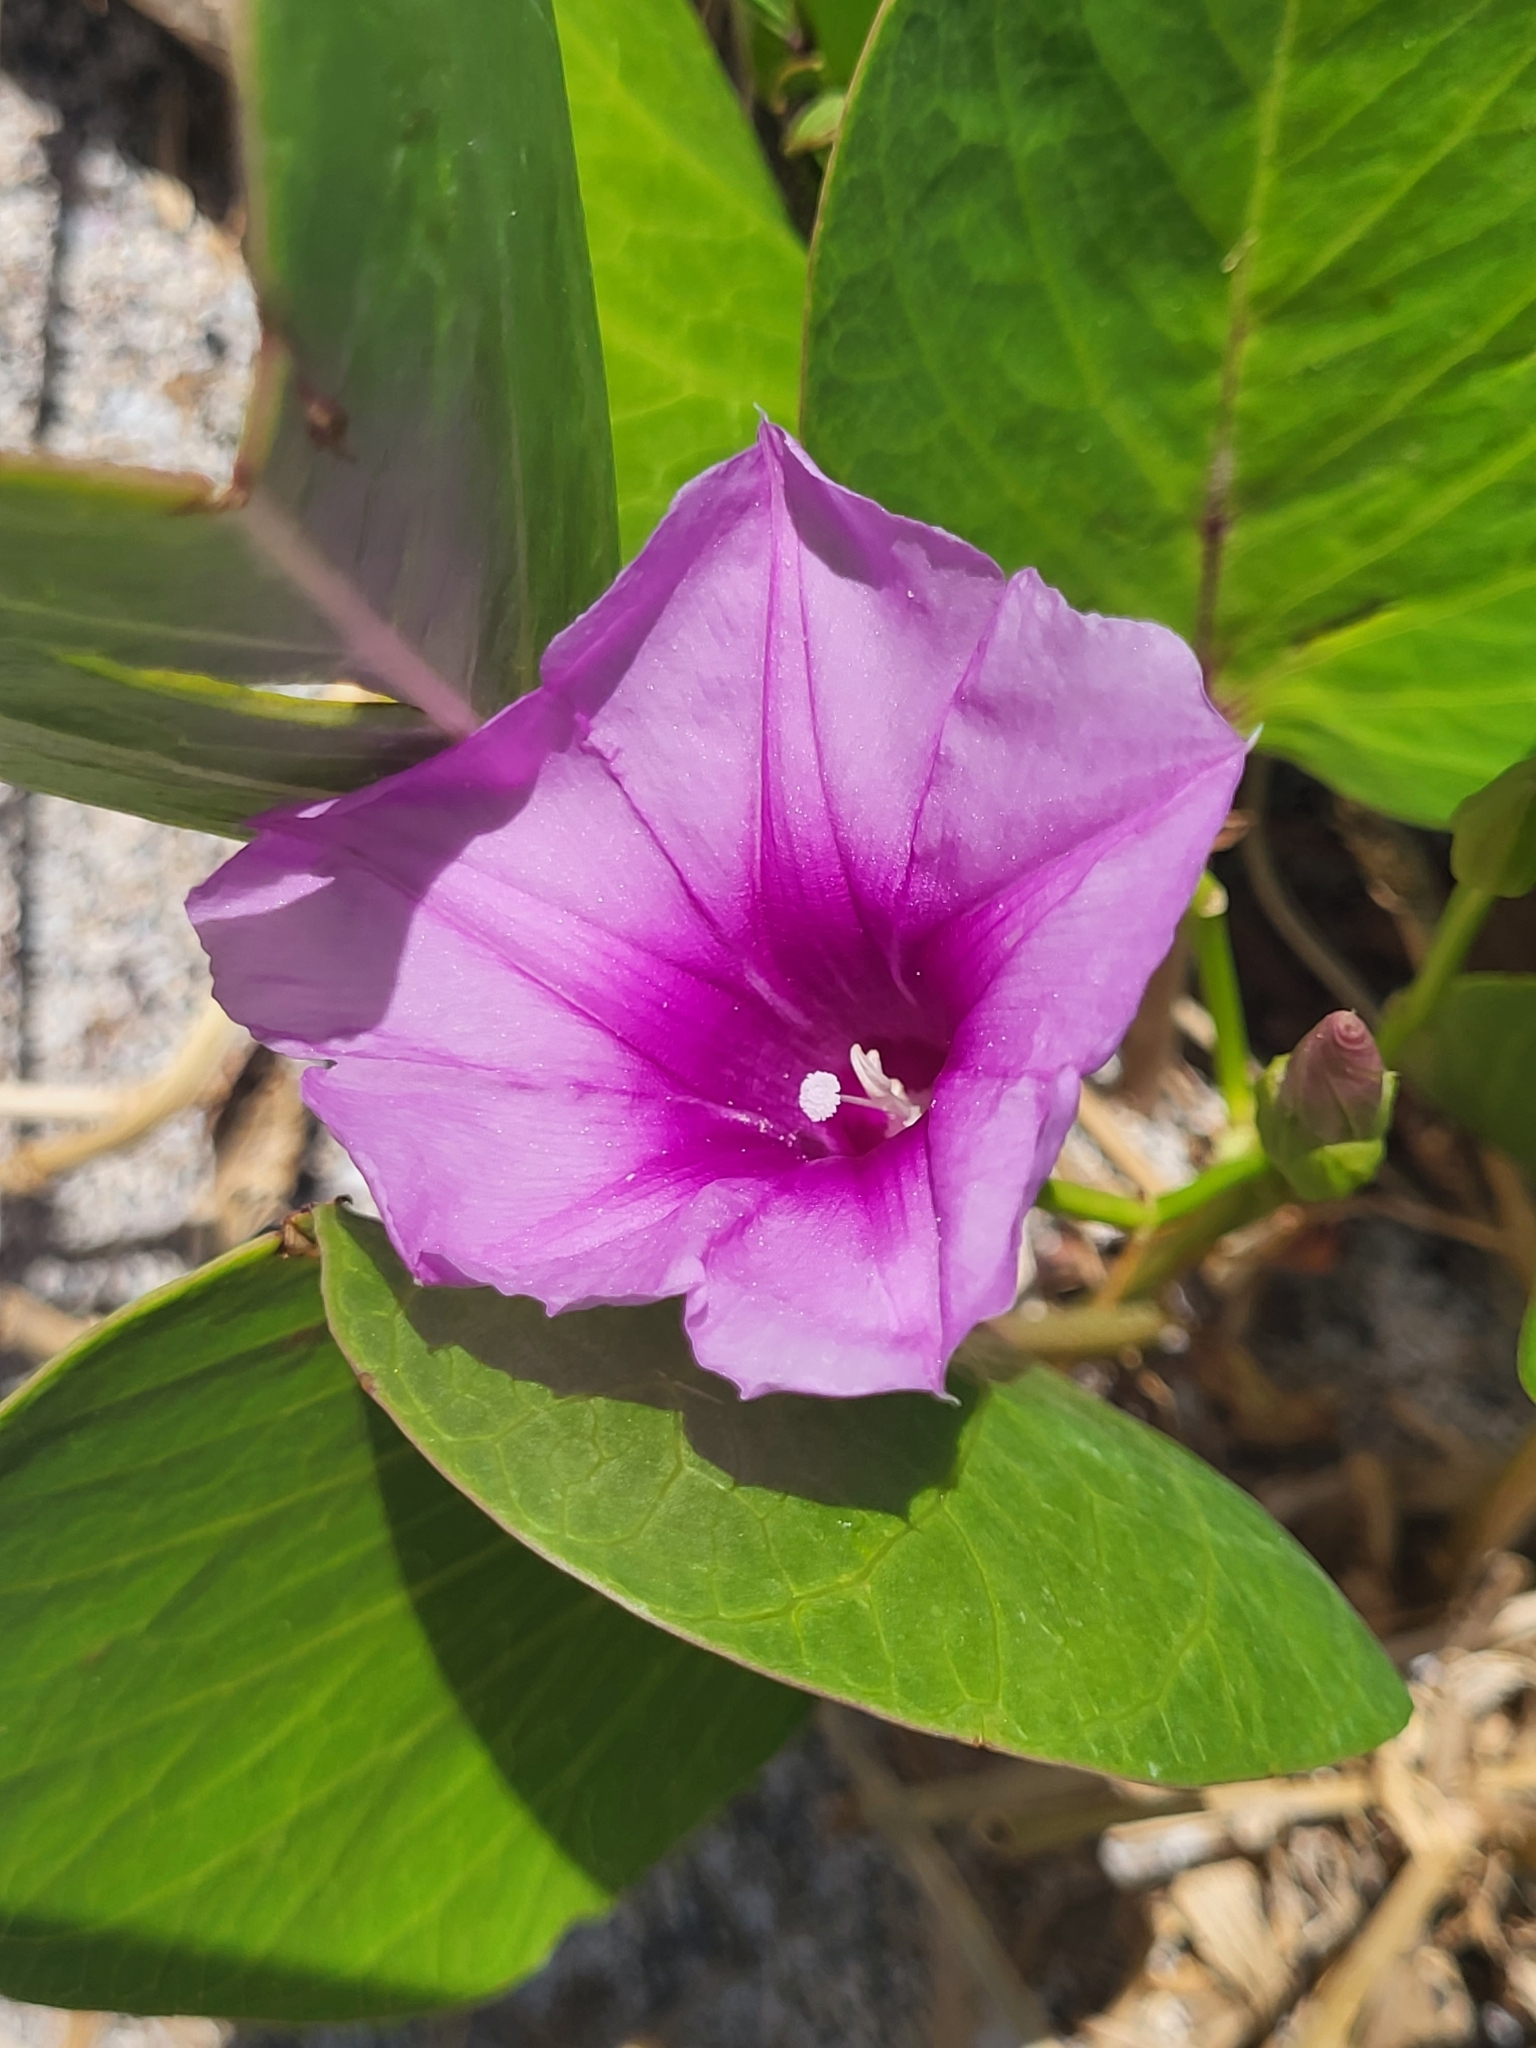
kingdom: Plantae
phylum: Tracheophyta
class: Magnoliopsida
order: Solanales
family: Convolvulaceae
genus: Ipomoea
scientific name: Ipomoea pes-caprae
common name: Beach morning glory
